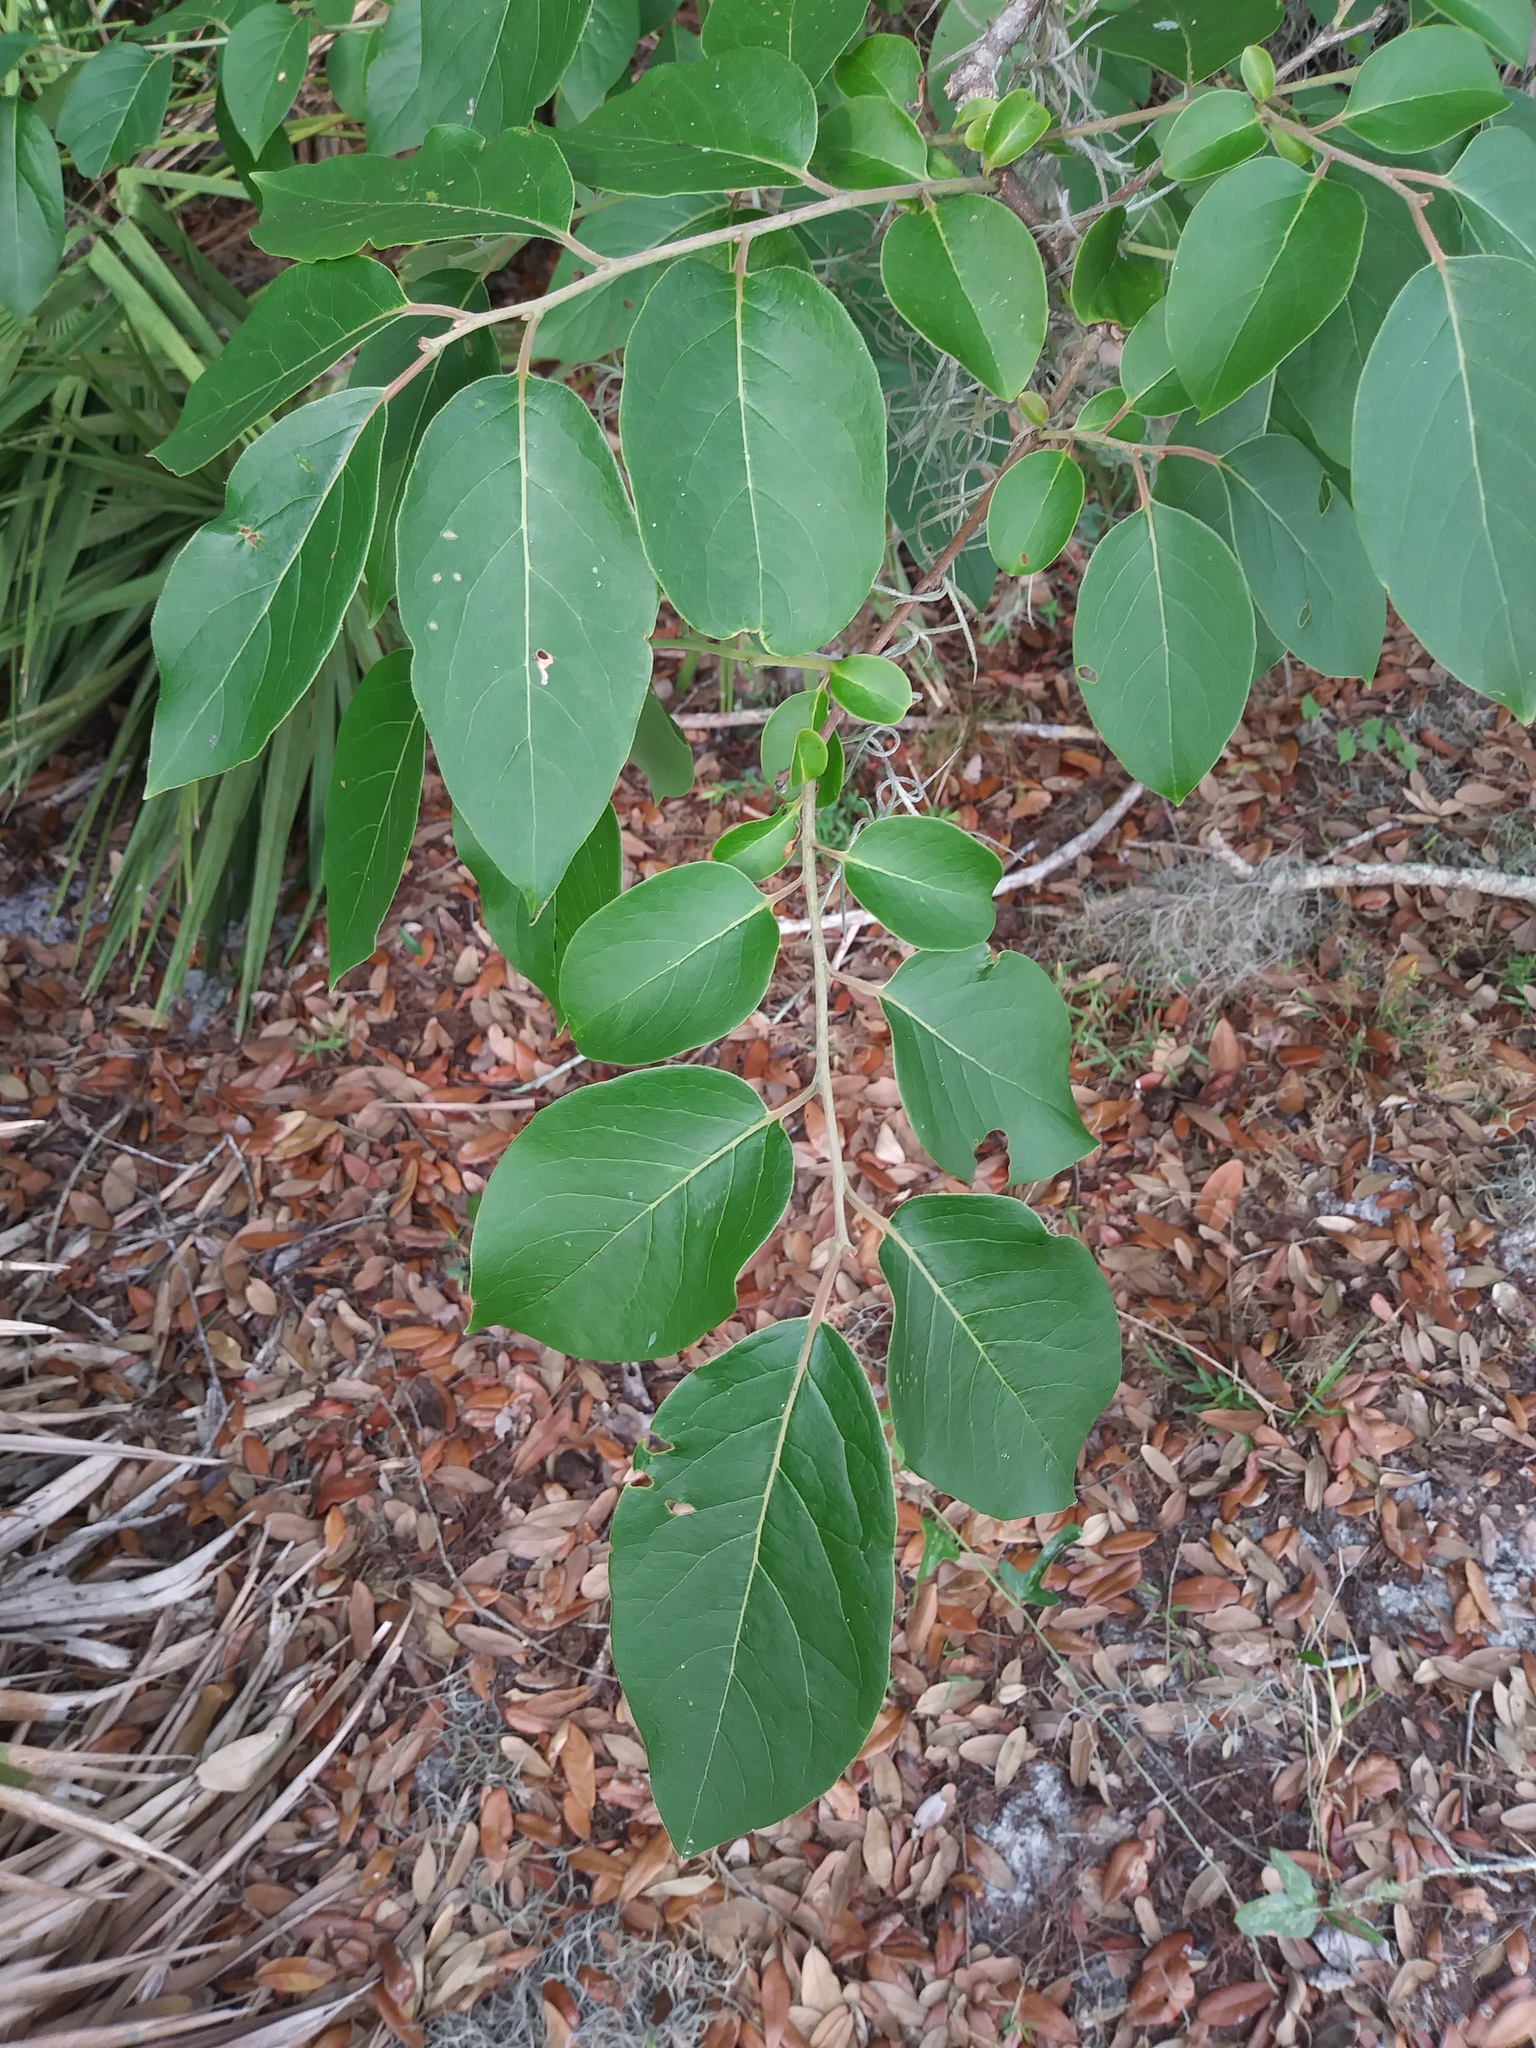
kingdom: Plantae
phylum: Tracheophyta
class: Magnoliopsida
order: Ericales
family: Ebenaceae
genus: Diospyros
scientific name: Diospyros virginiana
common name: Persimmon
